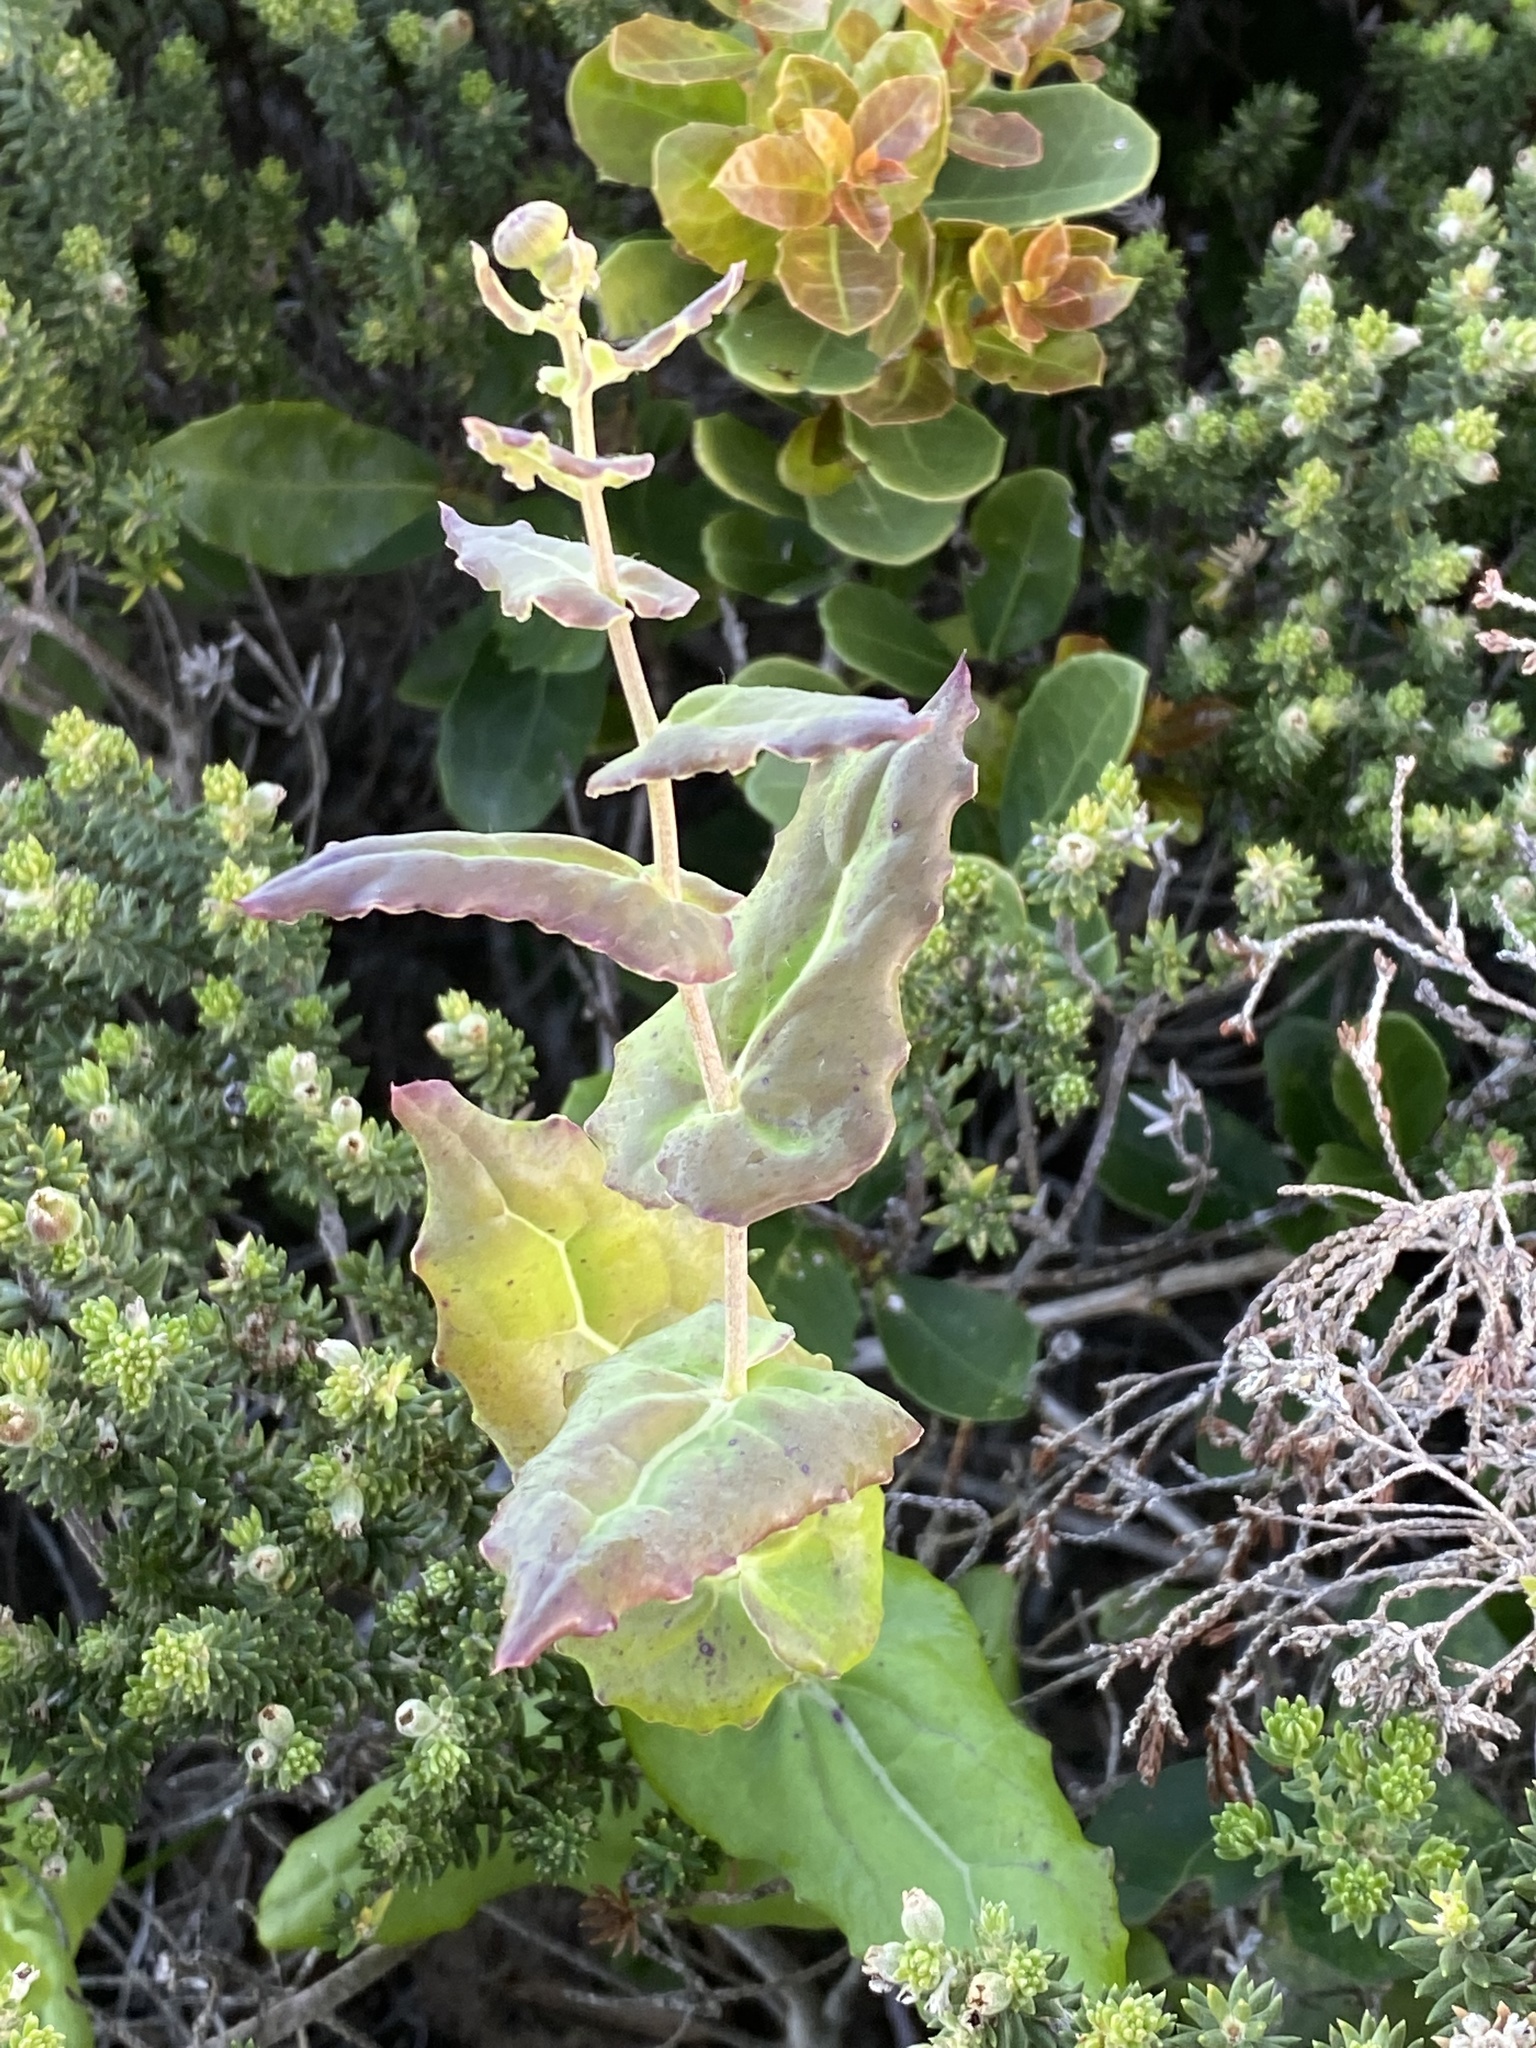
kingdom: Plantae
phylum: Tracheophyta
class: Magnoliopsida
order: Asterales
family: Asteraceae
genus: Othonna
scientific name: Othonna undulosa
